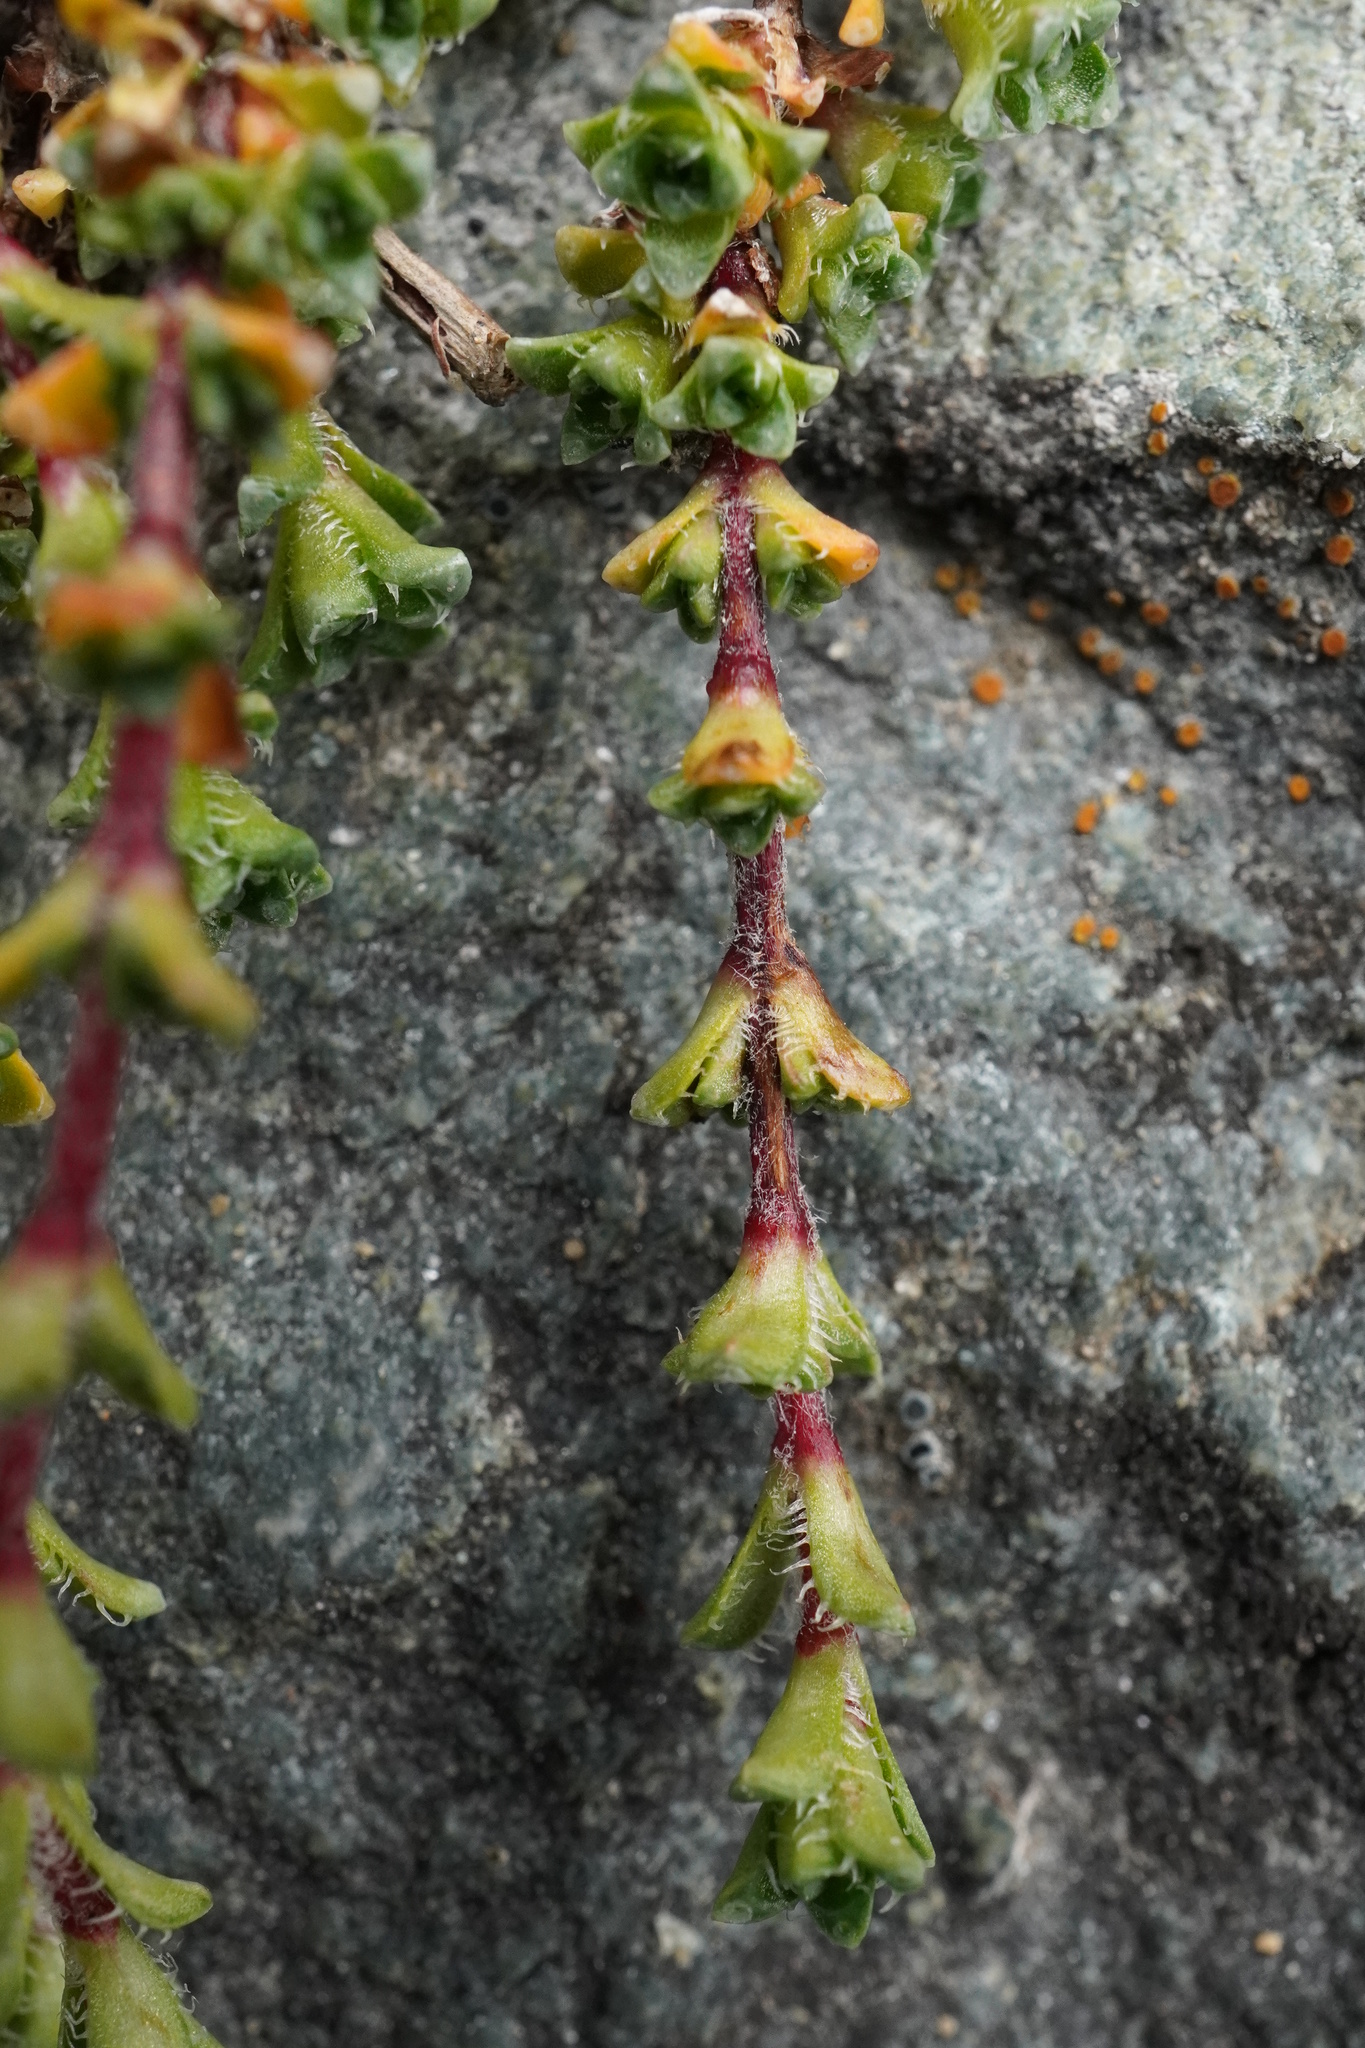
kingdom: Plantae
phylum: Tracheophyta
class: Magnoliopsida
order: Saxifragales
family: Saxifragaceae
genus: Saxifraga
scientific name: Saxifraga oppositifolia
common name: Purple saxifrage
